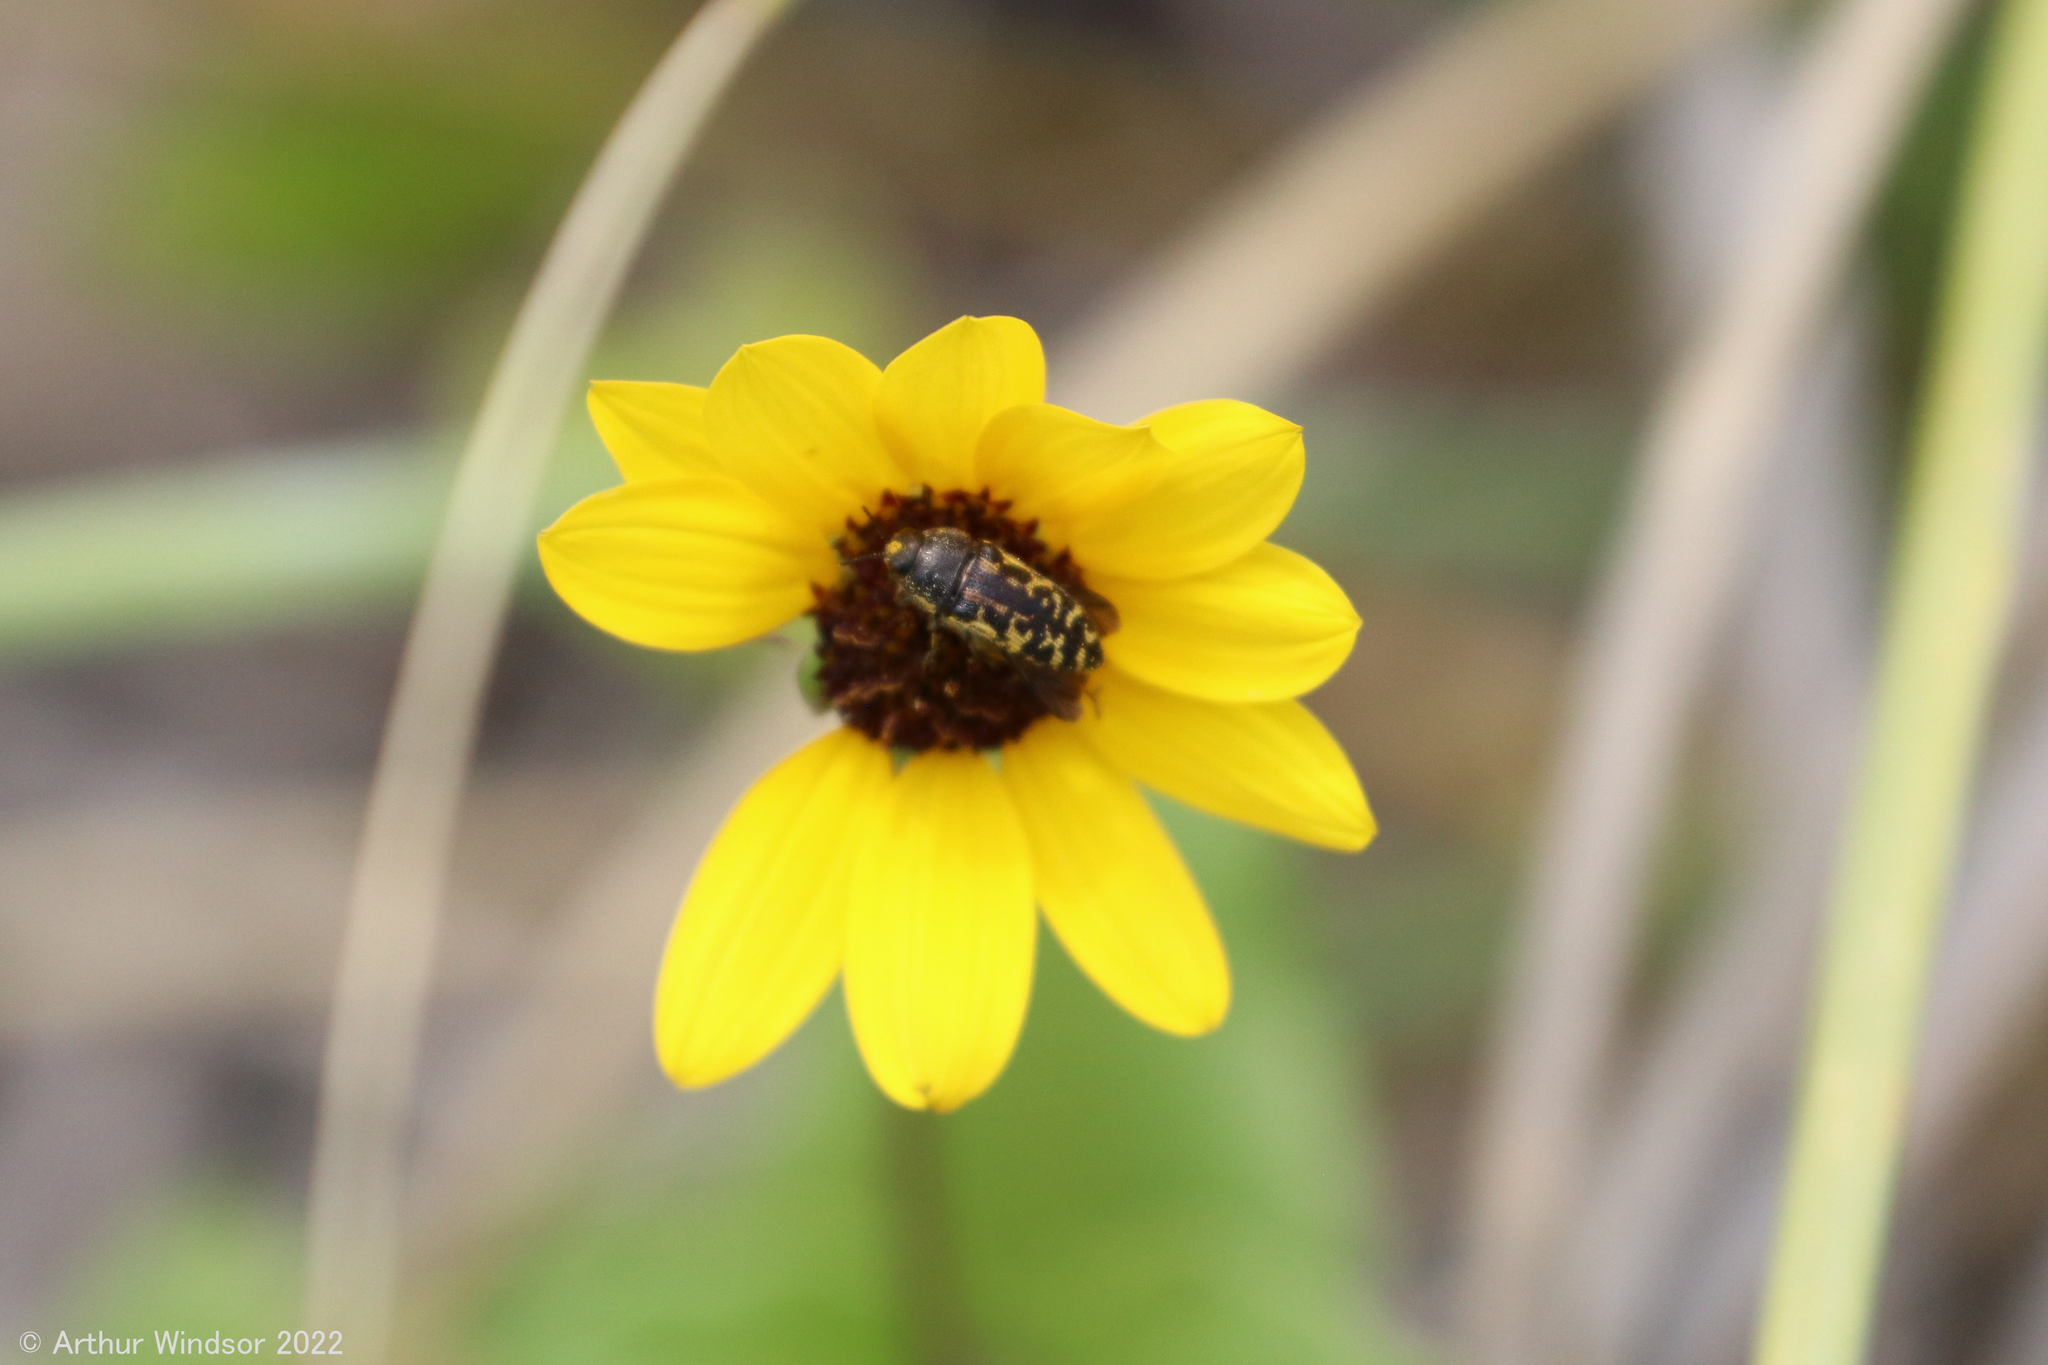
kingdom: Animalia
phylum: Arthropoda
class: Insecta
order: Coleoptera
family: Buprestidae
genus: Acmaeodera
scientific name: Acmaeodera pulchella
